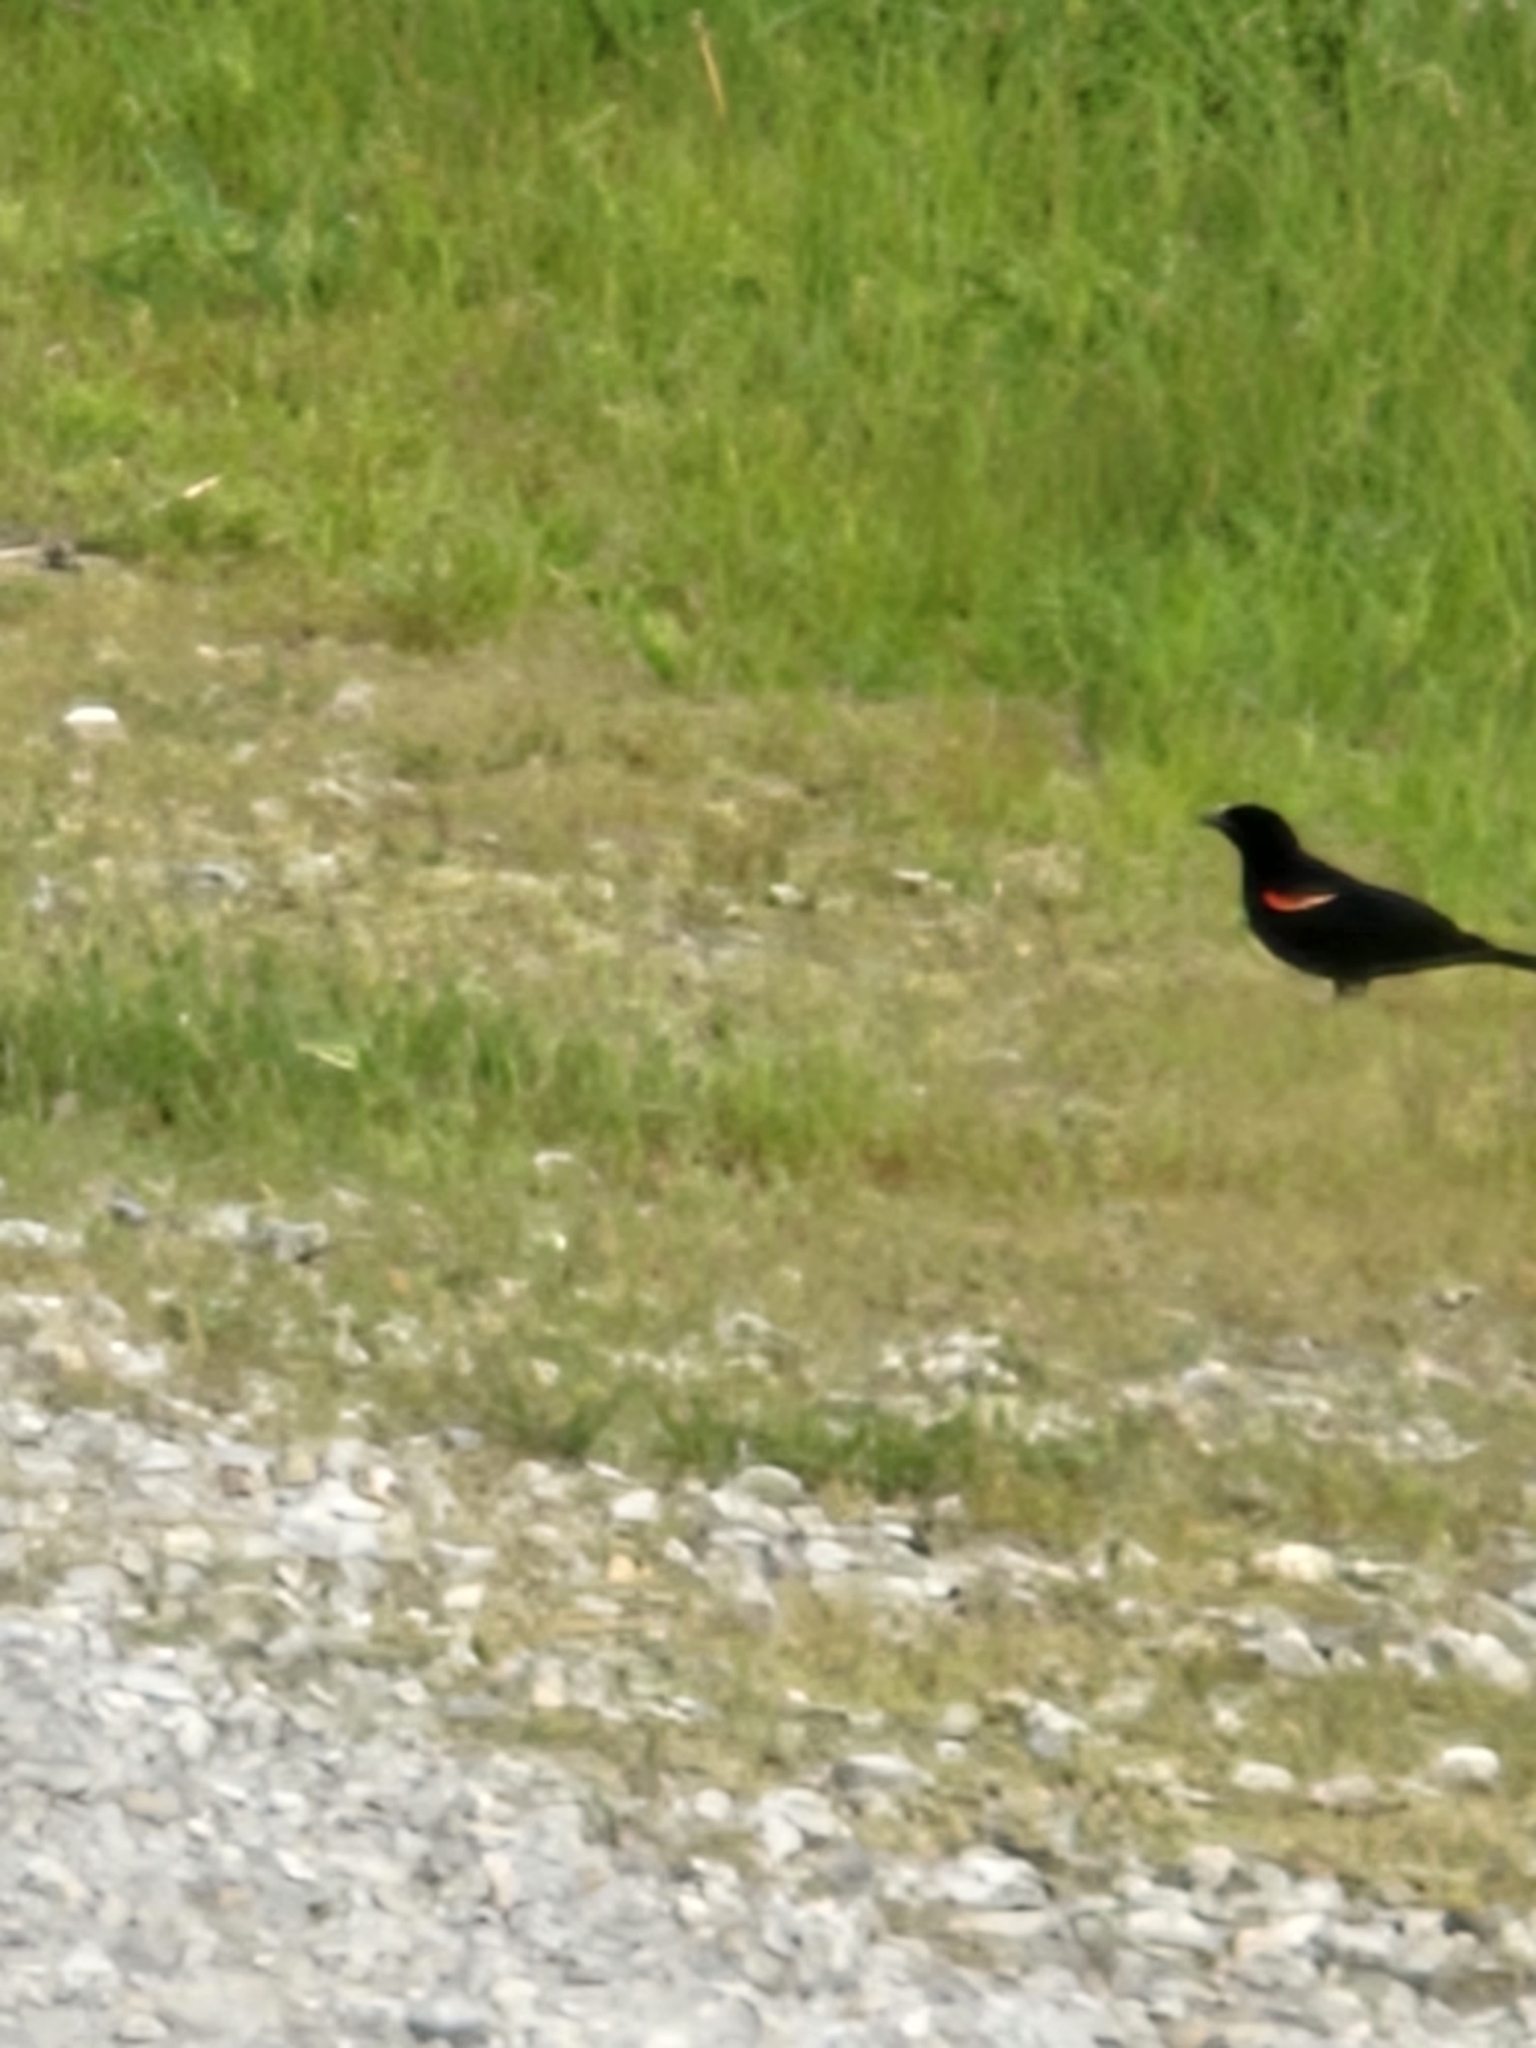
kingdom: Animalia
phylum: Chordata
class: Aves
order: Passeriformes
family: Icteridae
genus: Agelaius
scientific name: Agelaius phoeniceus
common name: Red-winged blackbird
